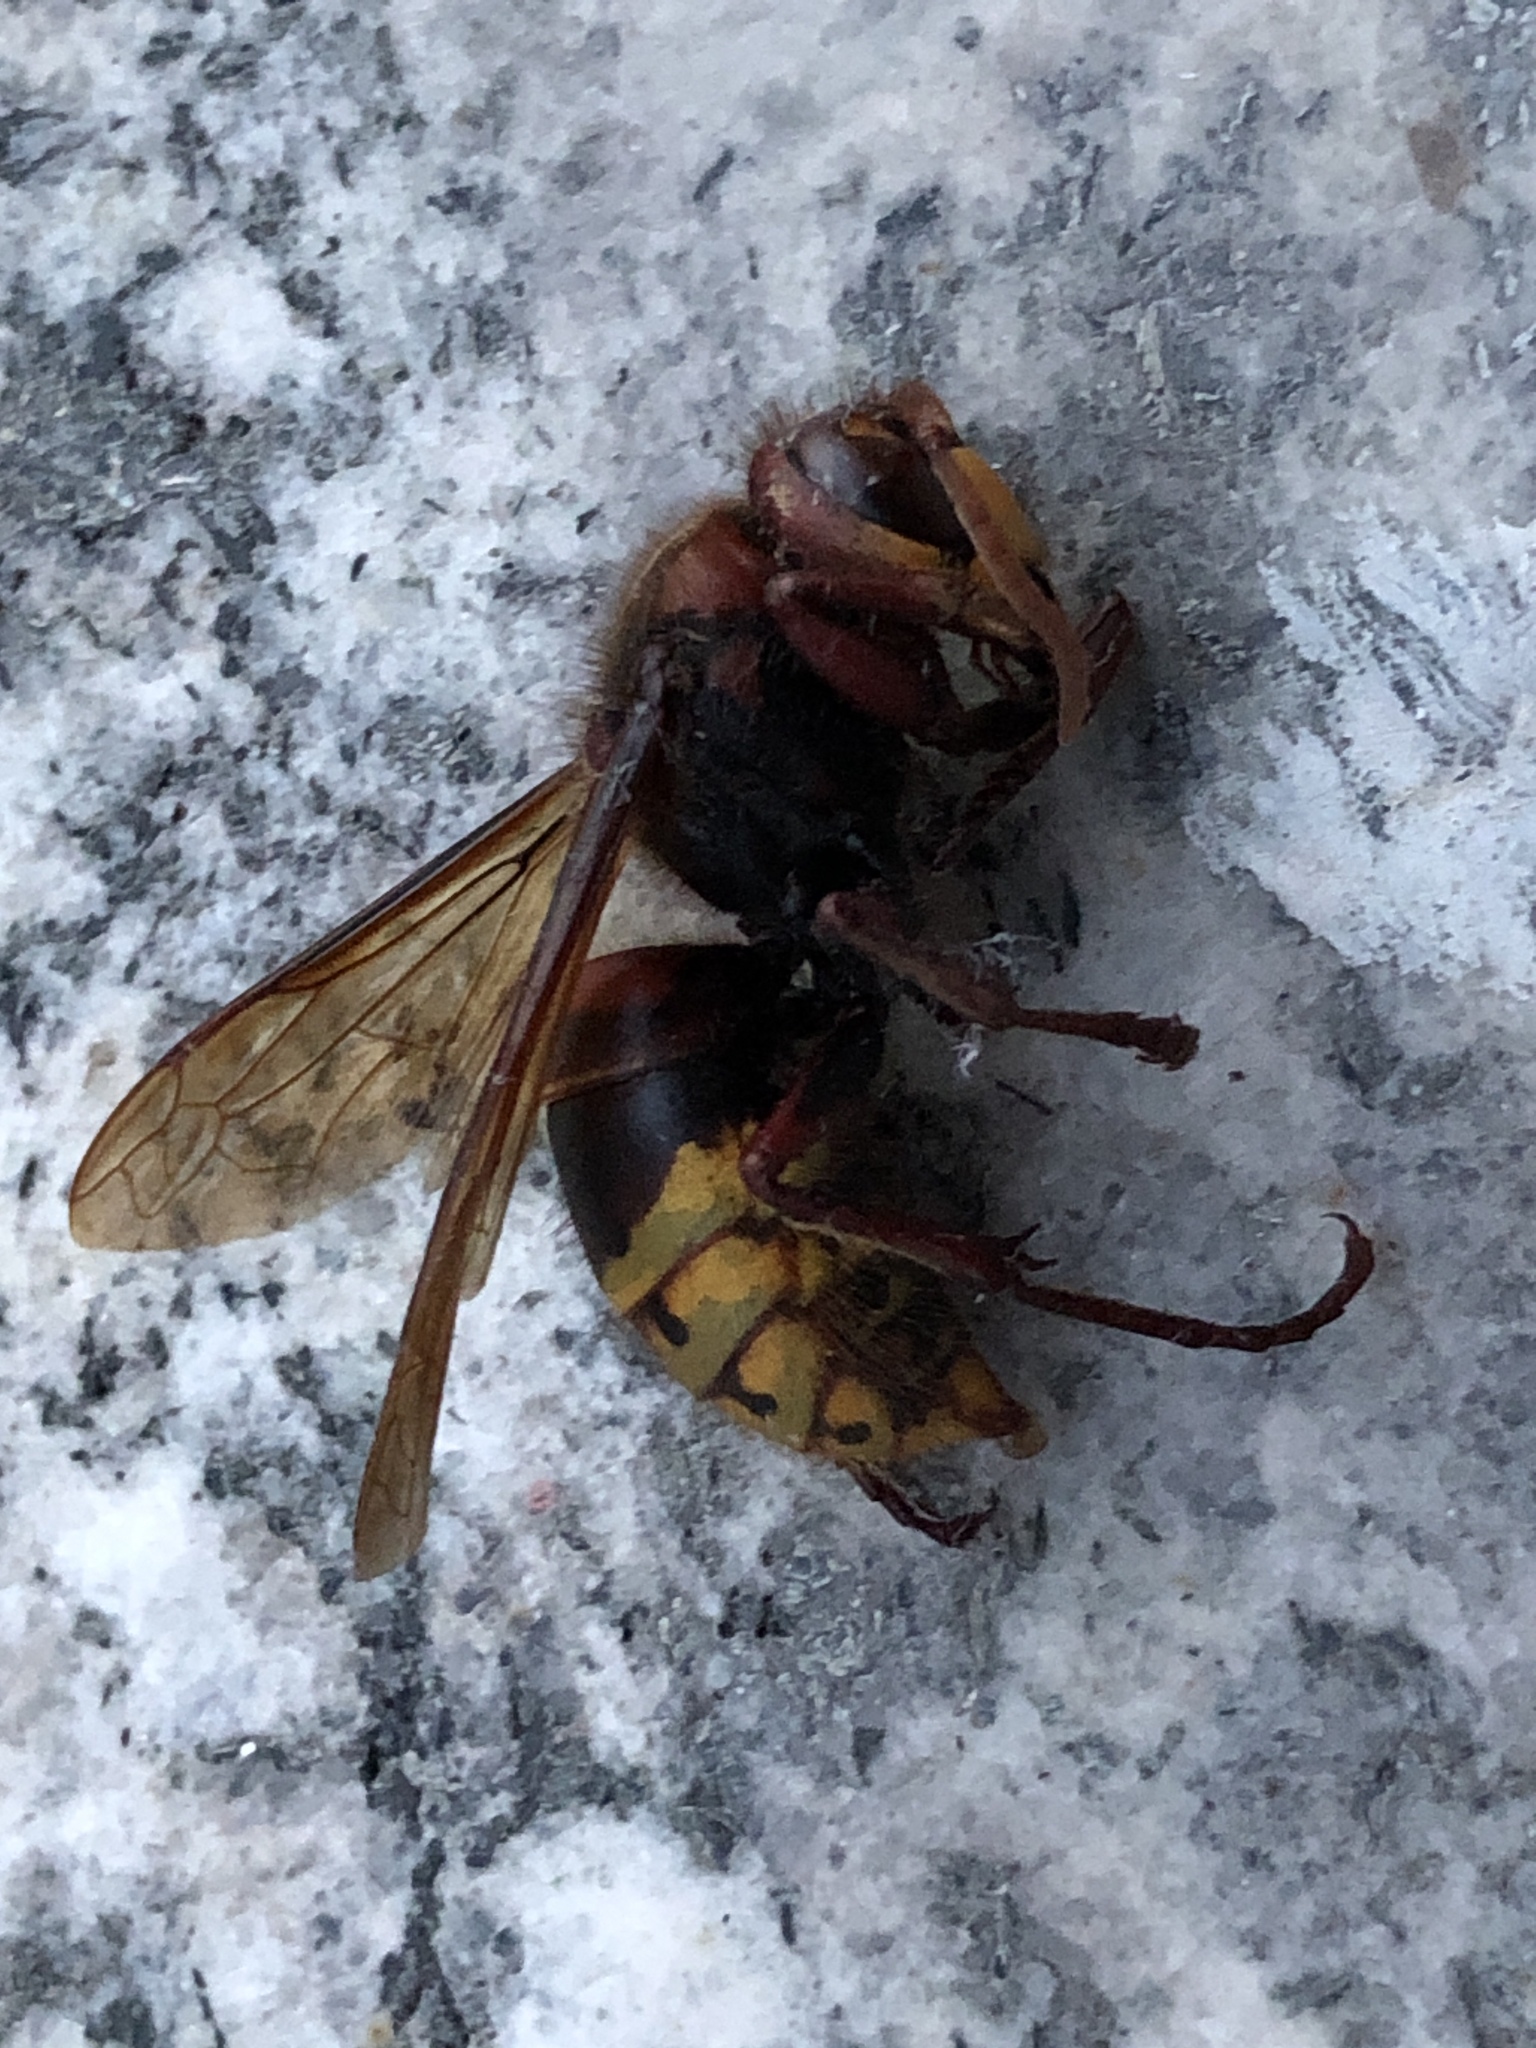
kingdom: Animalia
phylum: Arthropoda
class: Insecta
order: Hymenoptera
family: Vespidae
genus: Vespa
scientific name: Vespa crabro
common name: Hornet
